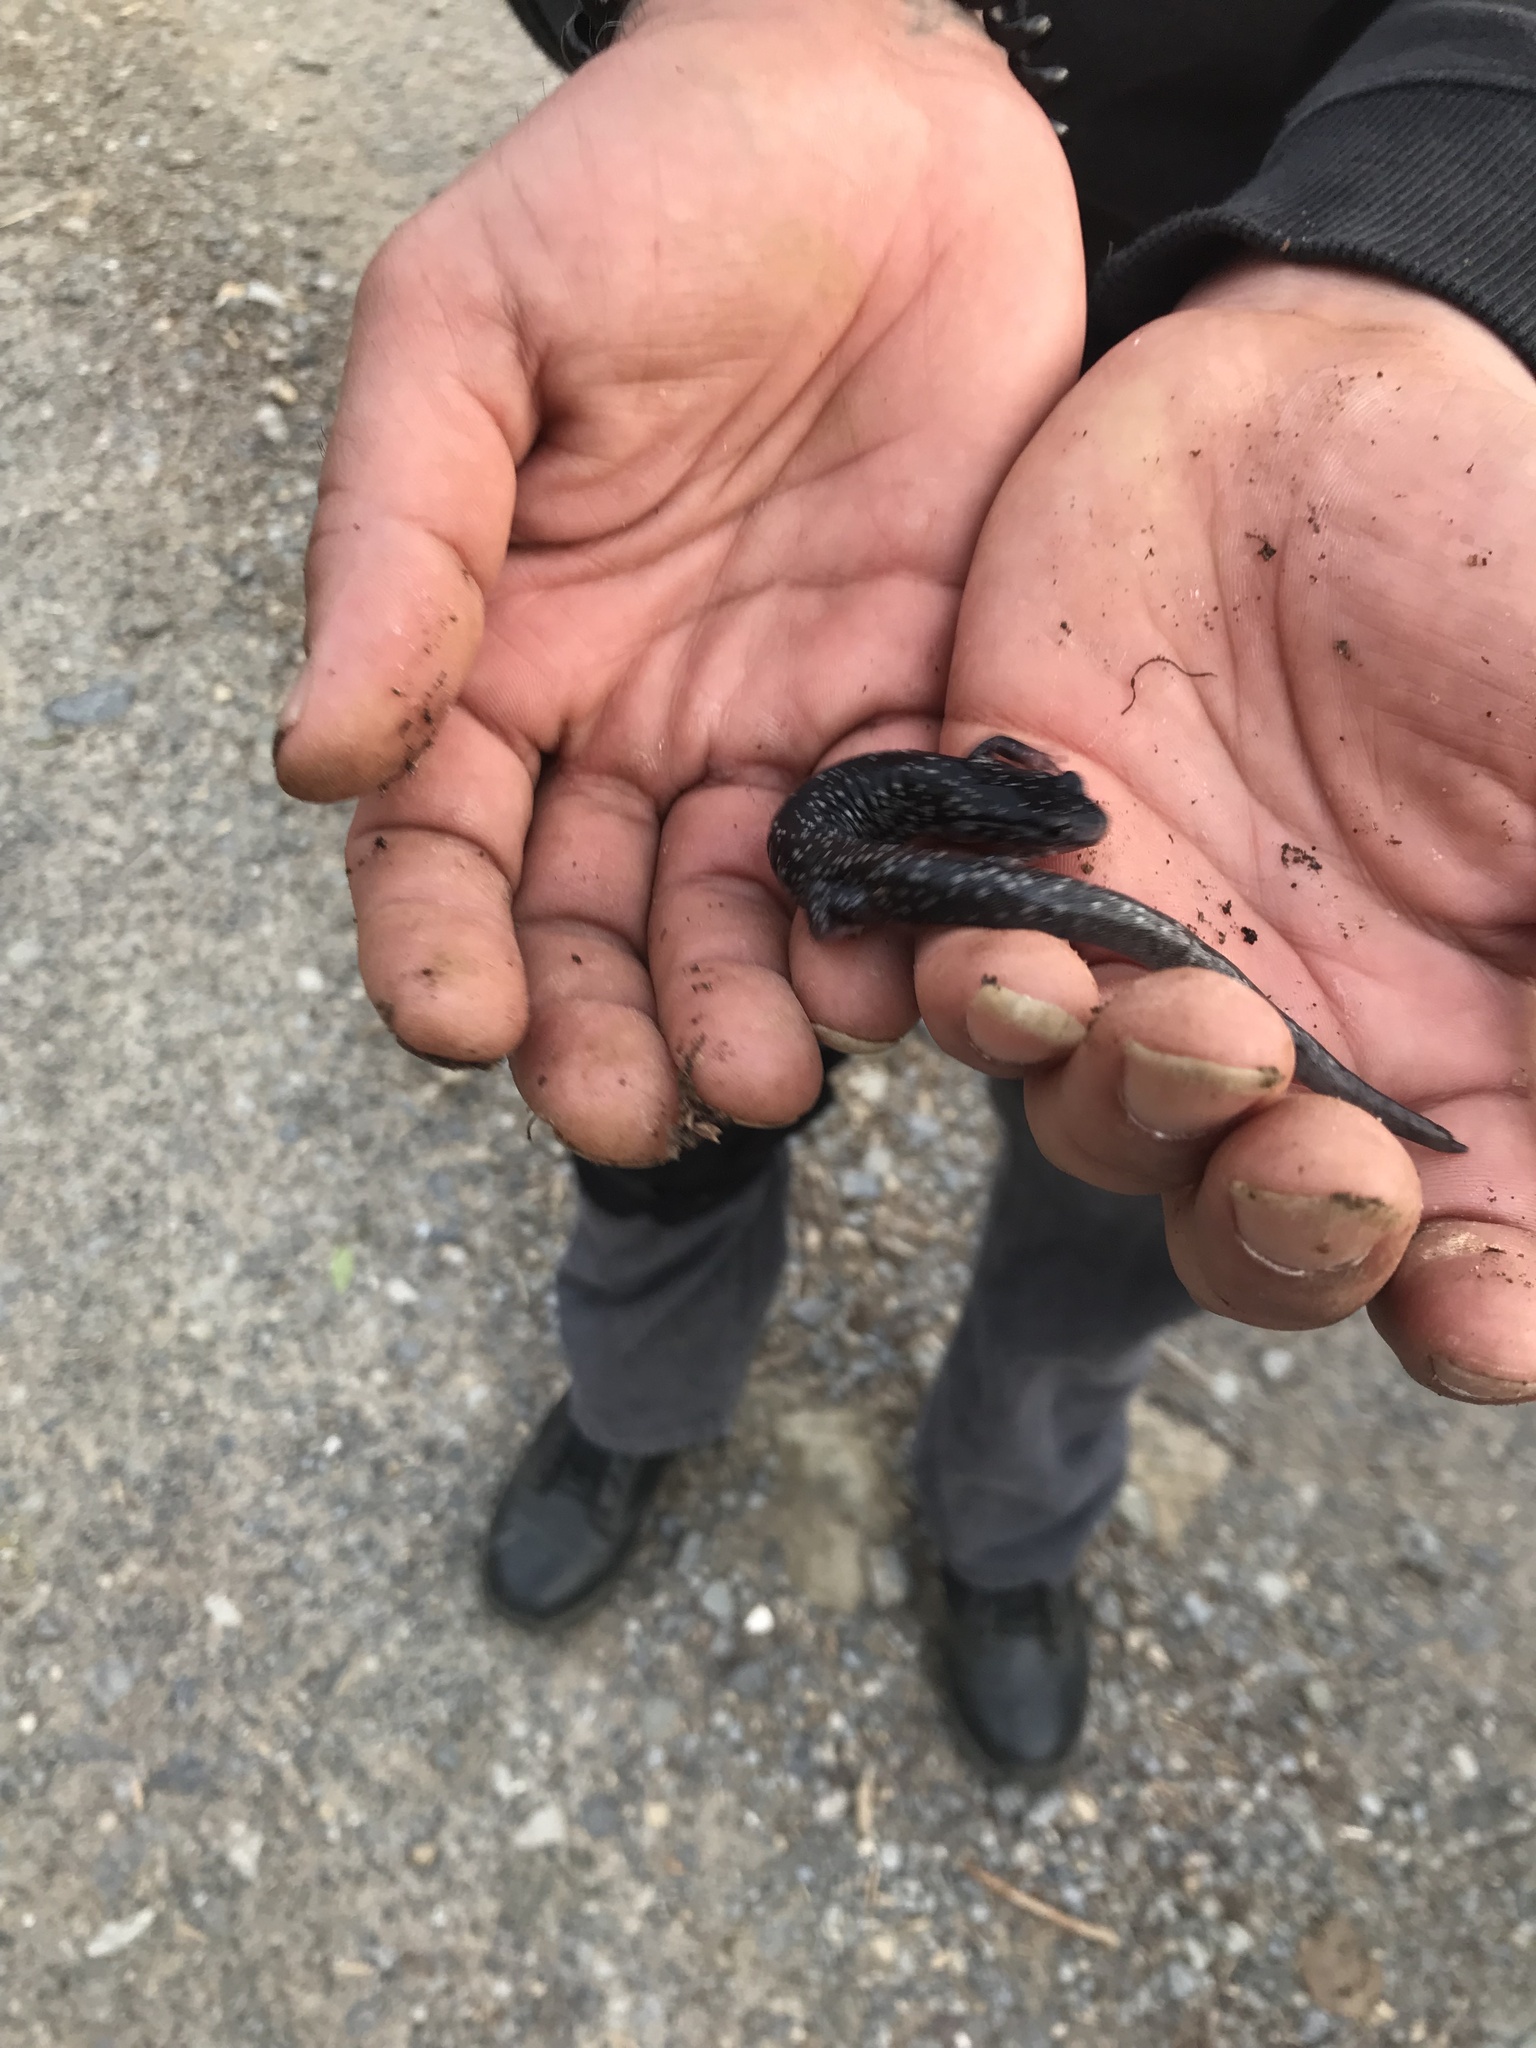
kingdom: Animalia
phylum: Chordata
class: Amphibia
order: Caudata
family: Plethodontidae
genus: Plethodon
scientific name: Plethodon cylindraceus
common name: White-spotted slimy salamander
